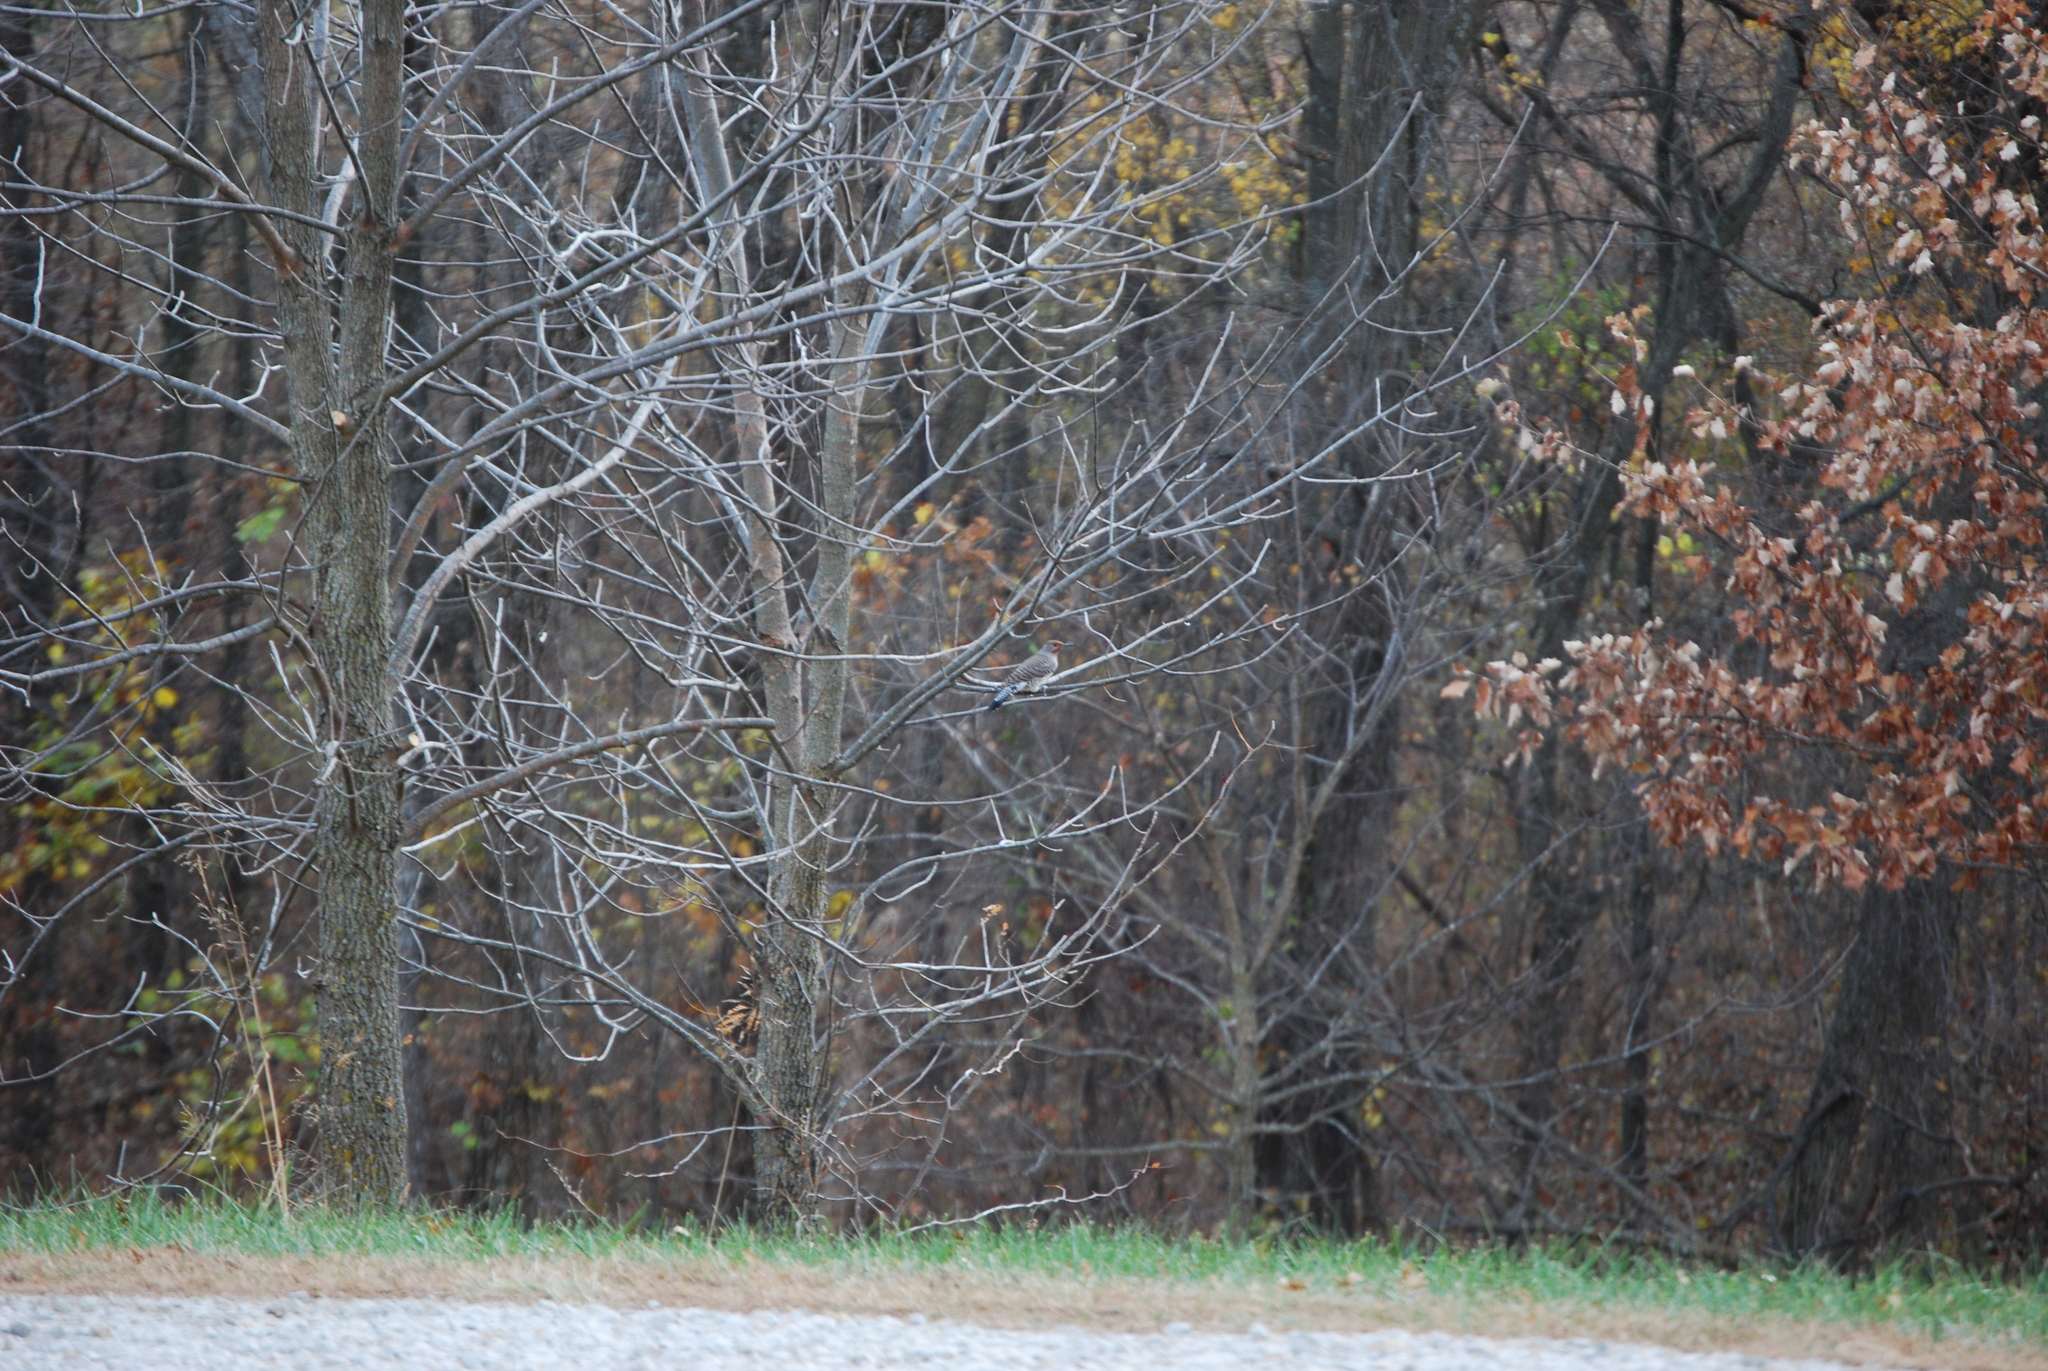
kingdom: Animalia
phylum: Chordata
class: Aves
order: Piciformes
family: Picidae
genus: Colaptes
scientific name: Colaptes auratus
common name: Northern flicker
